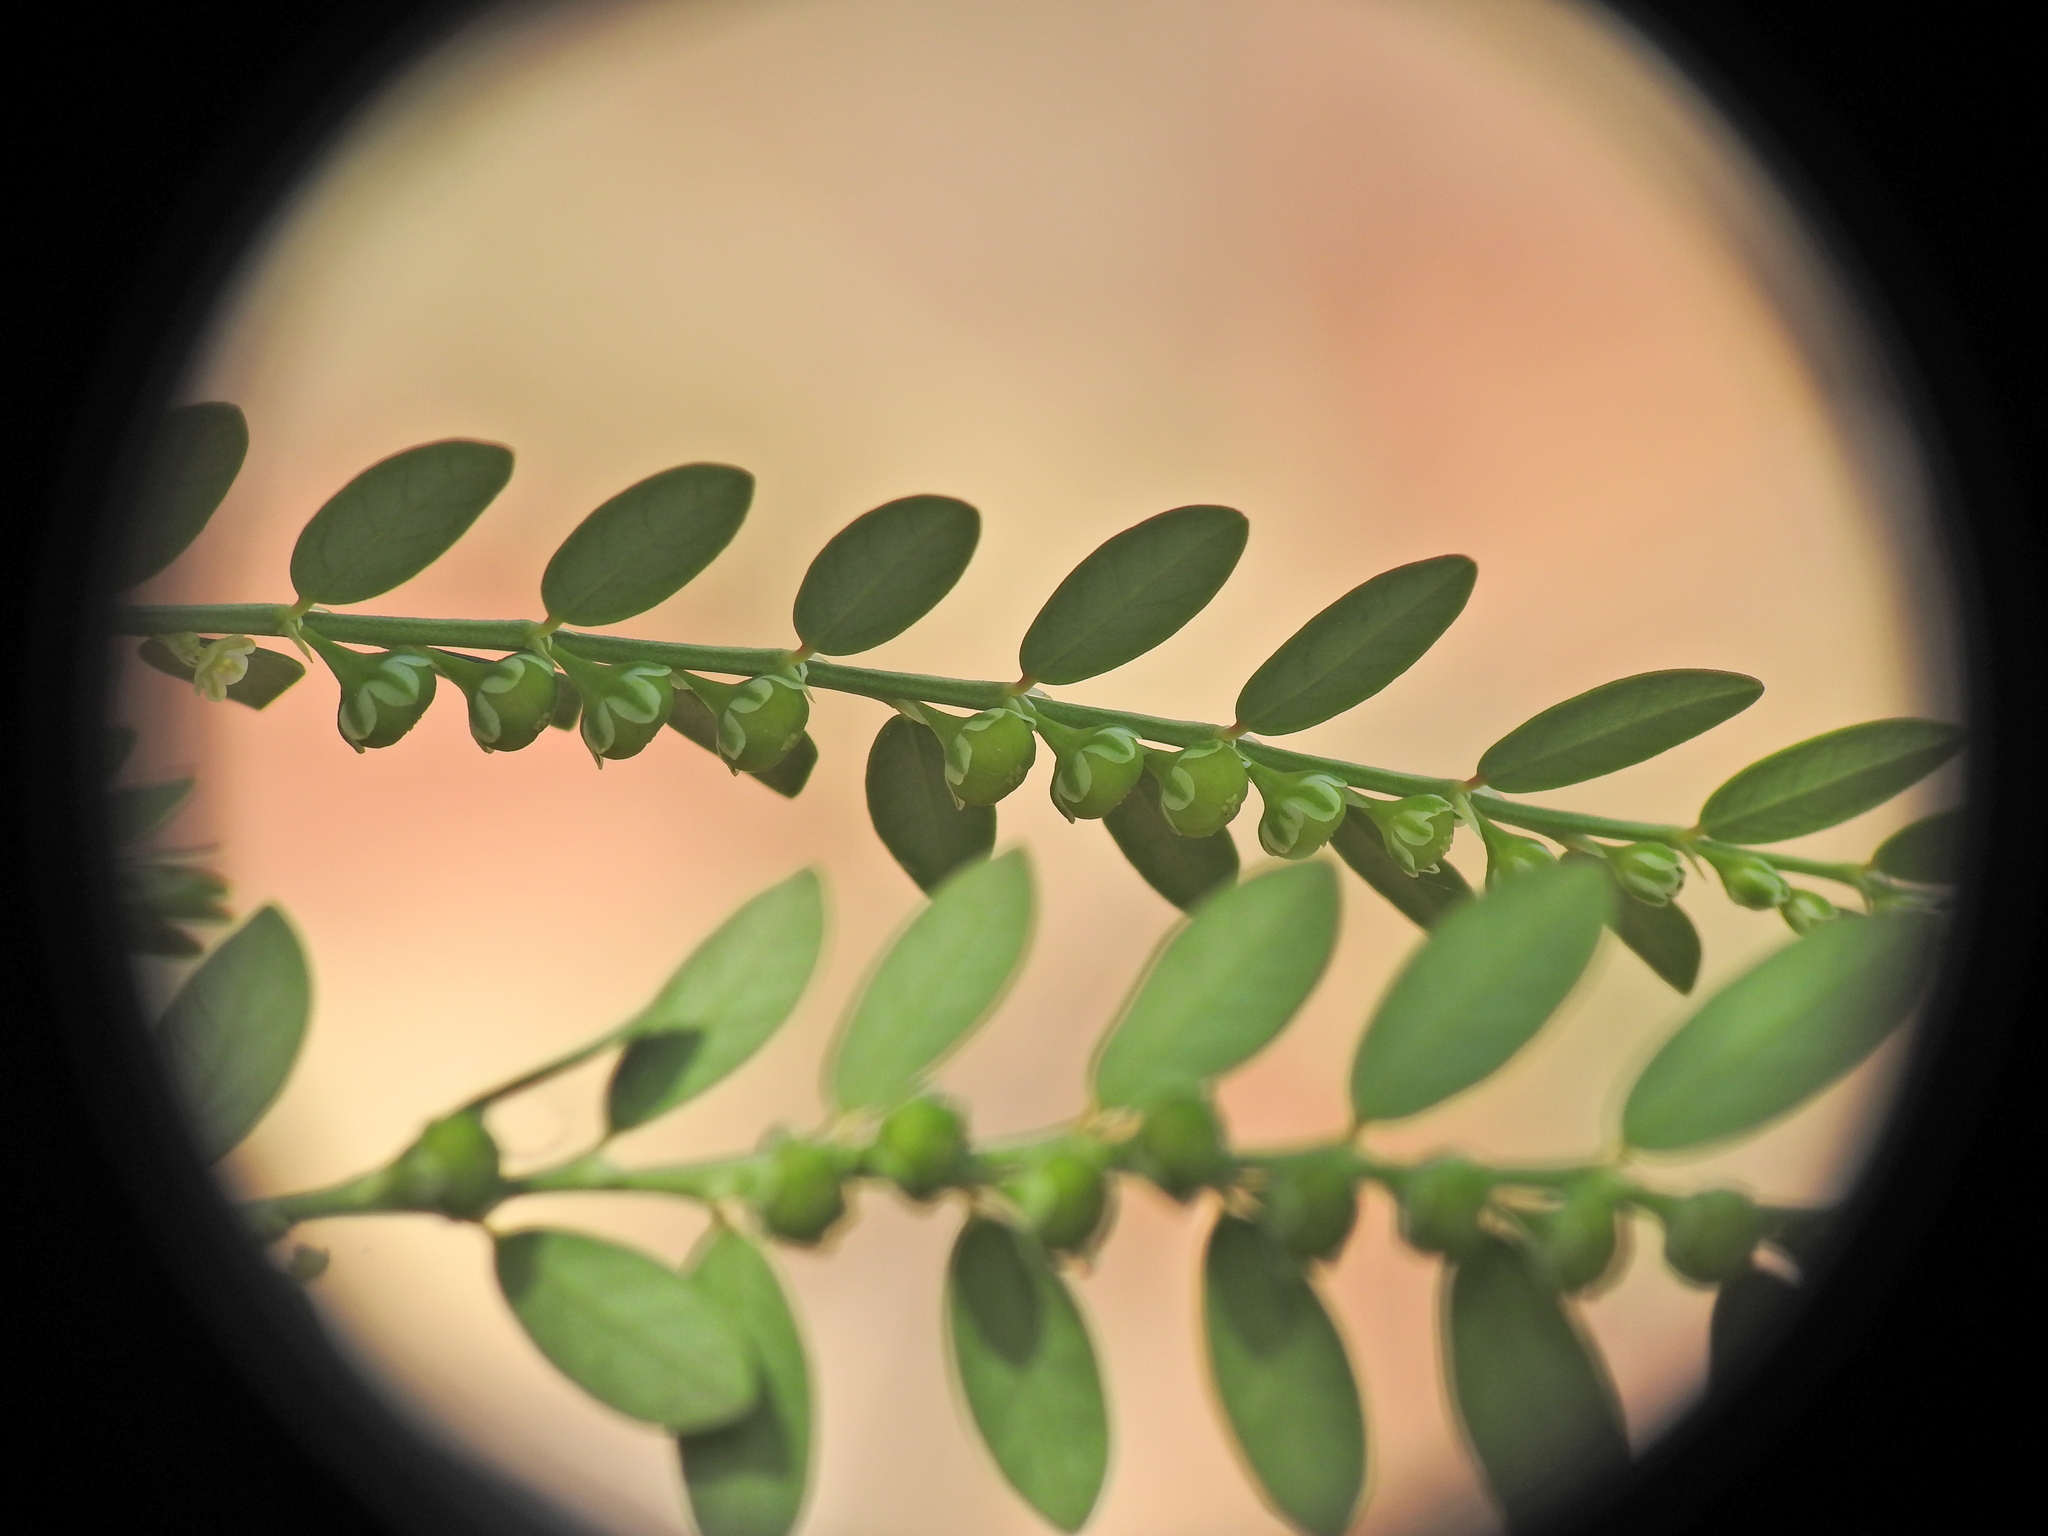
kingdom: Plantae
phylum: Tracheophyta
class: Magnoliopsida
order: Malpighiales
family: Phyllanthaceae
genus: Phyllanthus
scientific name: Phyllanthus debilis
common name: Niruri
